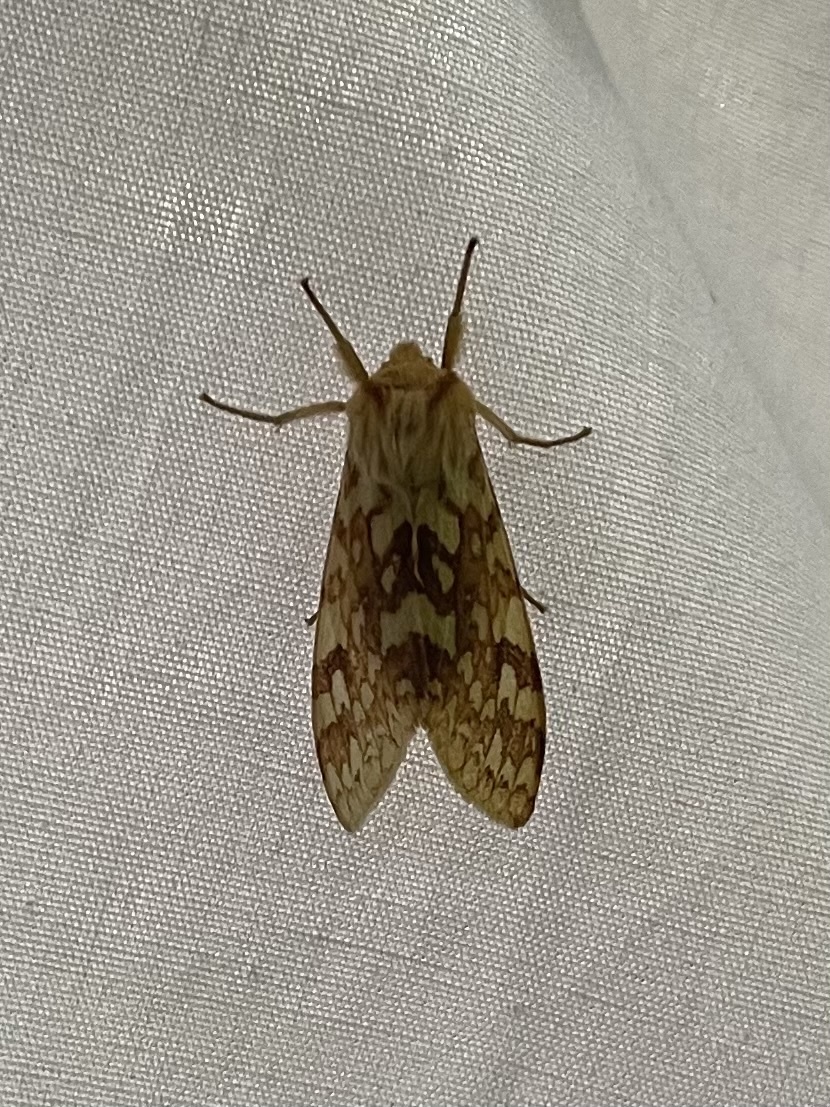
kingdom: Animalia
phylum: Arthropoda
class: Insecta
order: Lepidoptera
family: Erebidae
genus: Lophocampa
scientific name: Lophocampa maculata
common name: Spotted tussock moth
